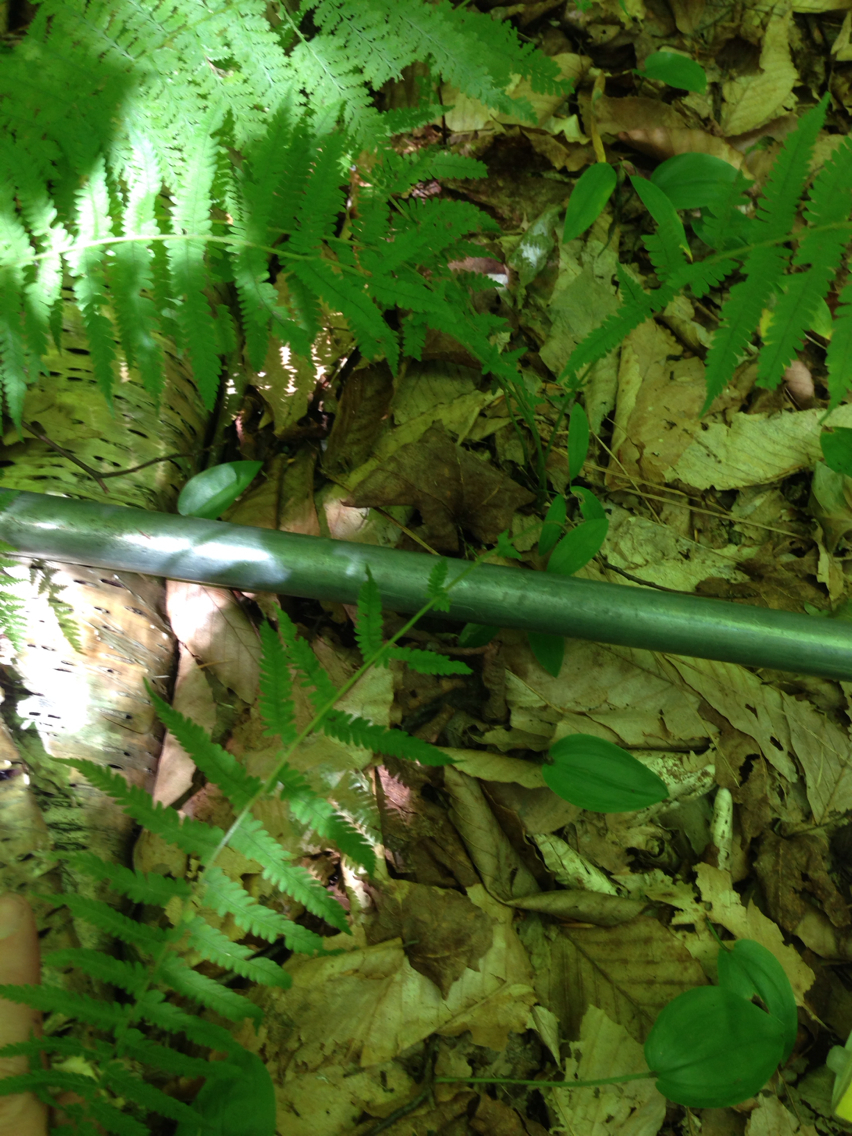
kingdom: Plantae
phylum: Tracheophyta
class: Polypodiopsida
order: Polypodiales
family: Thelypteridaceae
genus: Amauropelta
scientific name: Amauropelta noveboracensis
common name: New york fern
